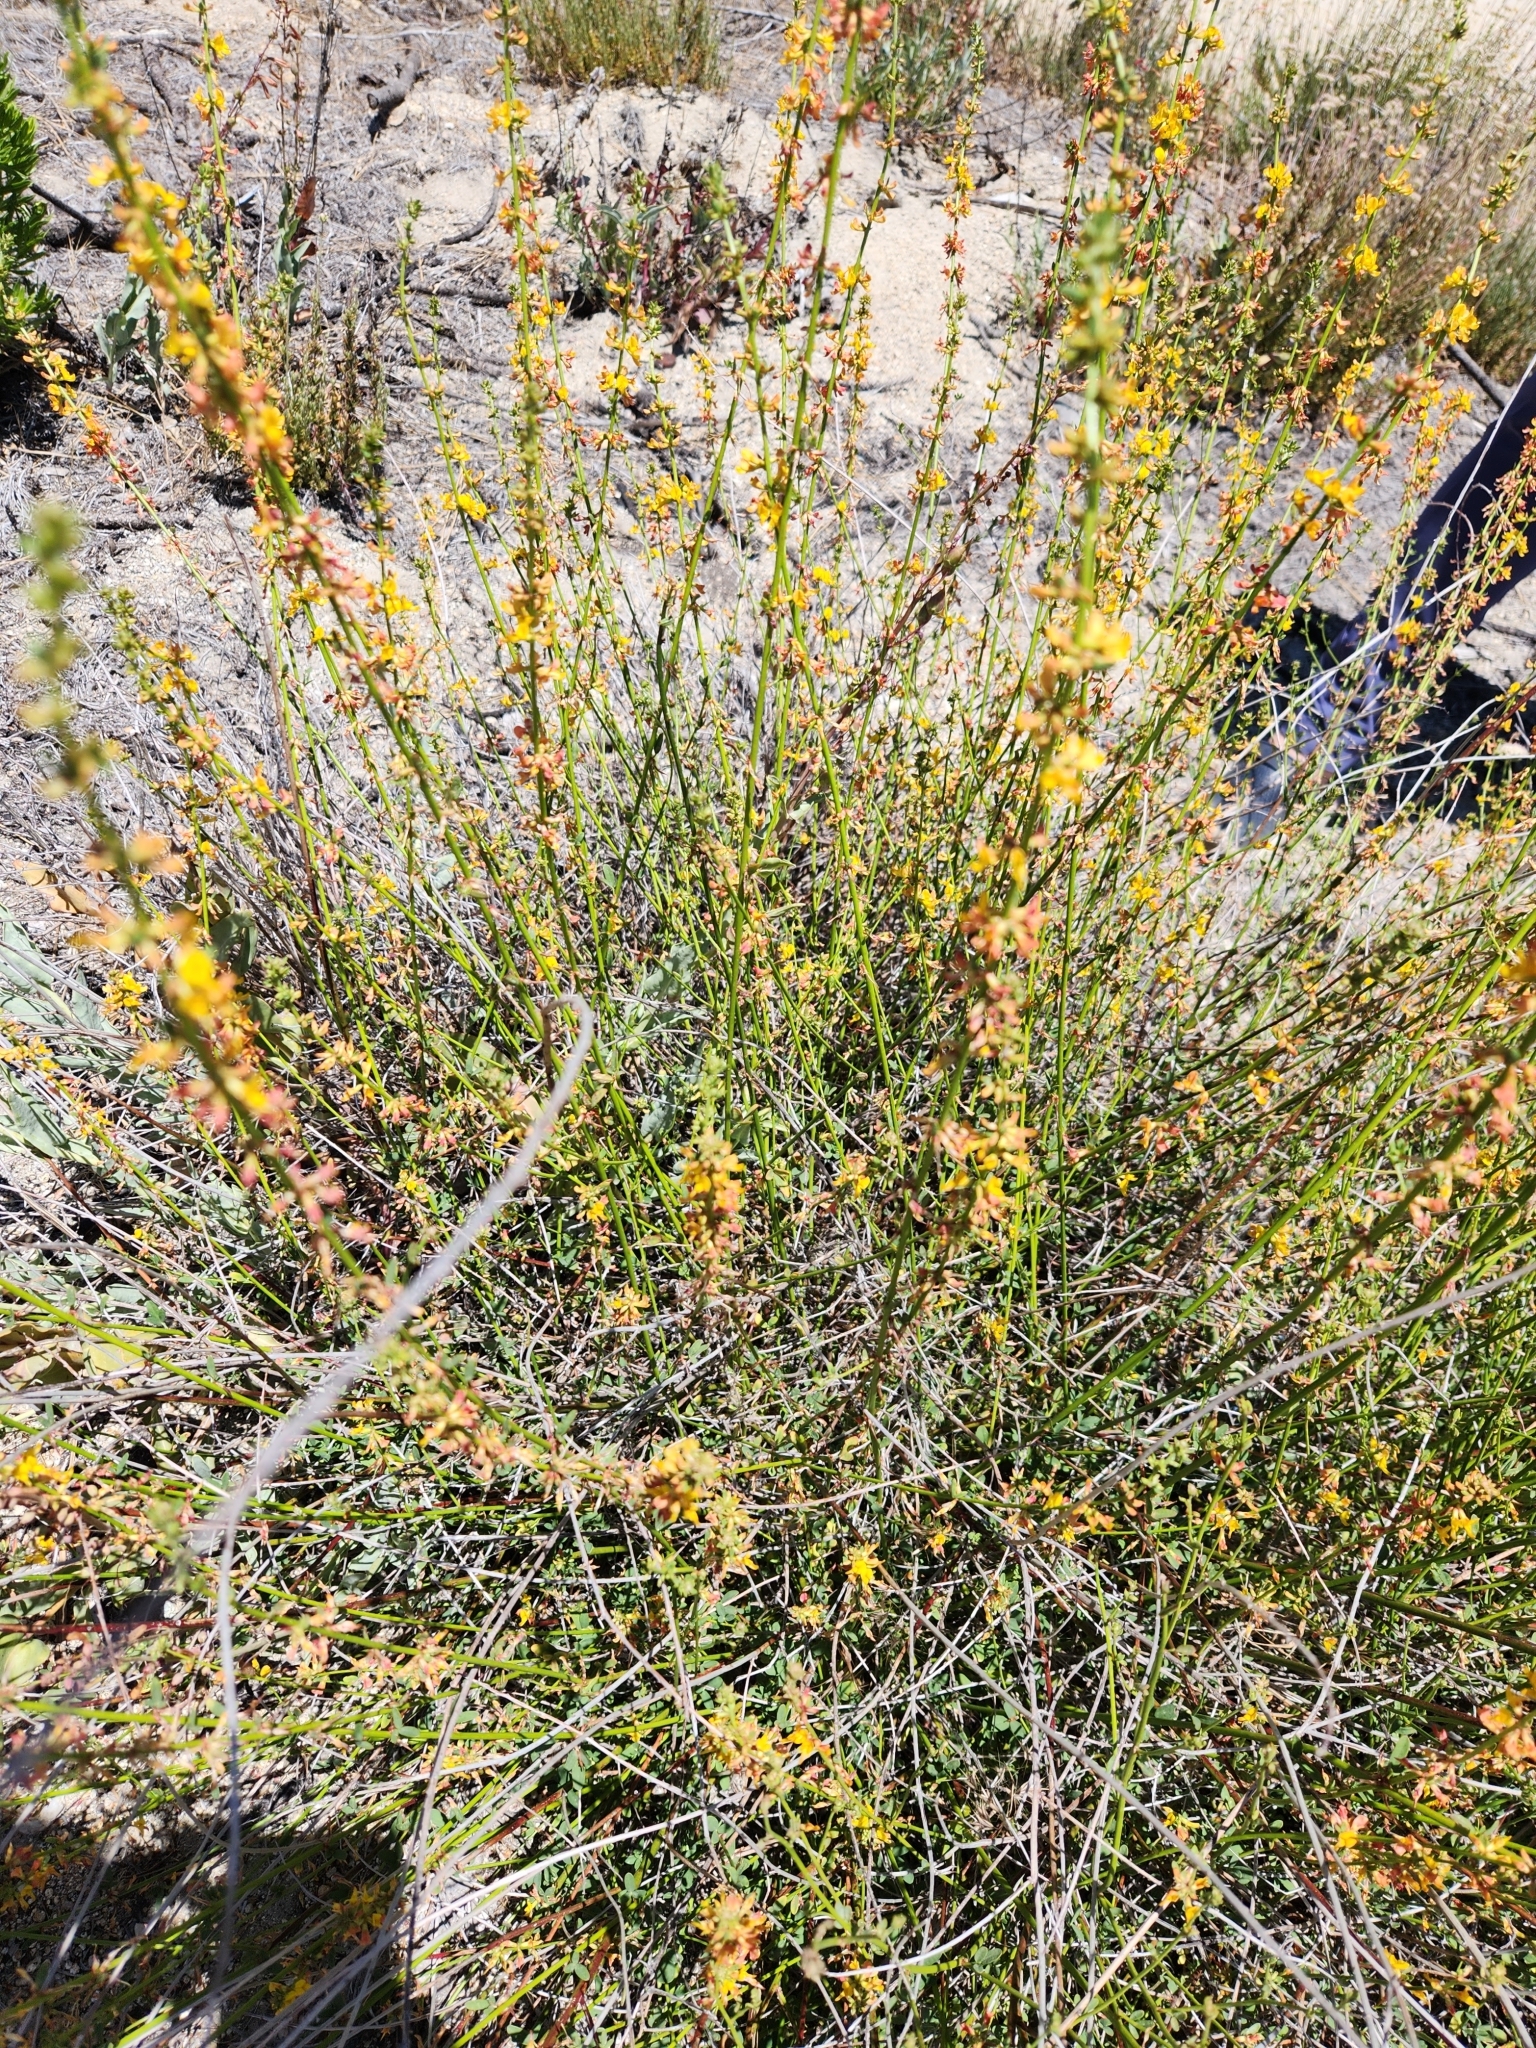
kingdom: Plantae
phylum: Tracheophyta
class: Magnoliopsida
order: Fabales
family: Fabaceae
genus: Acmispon
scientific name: Acmispon glaber
